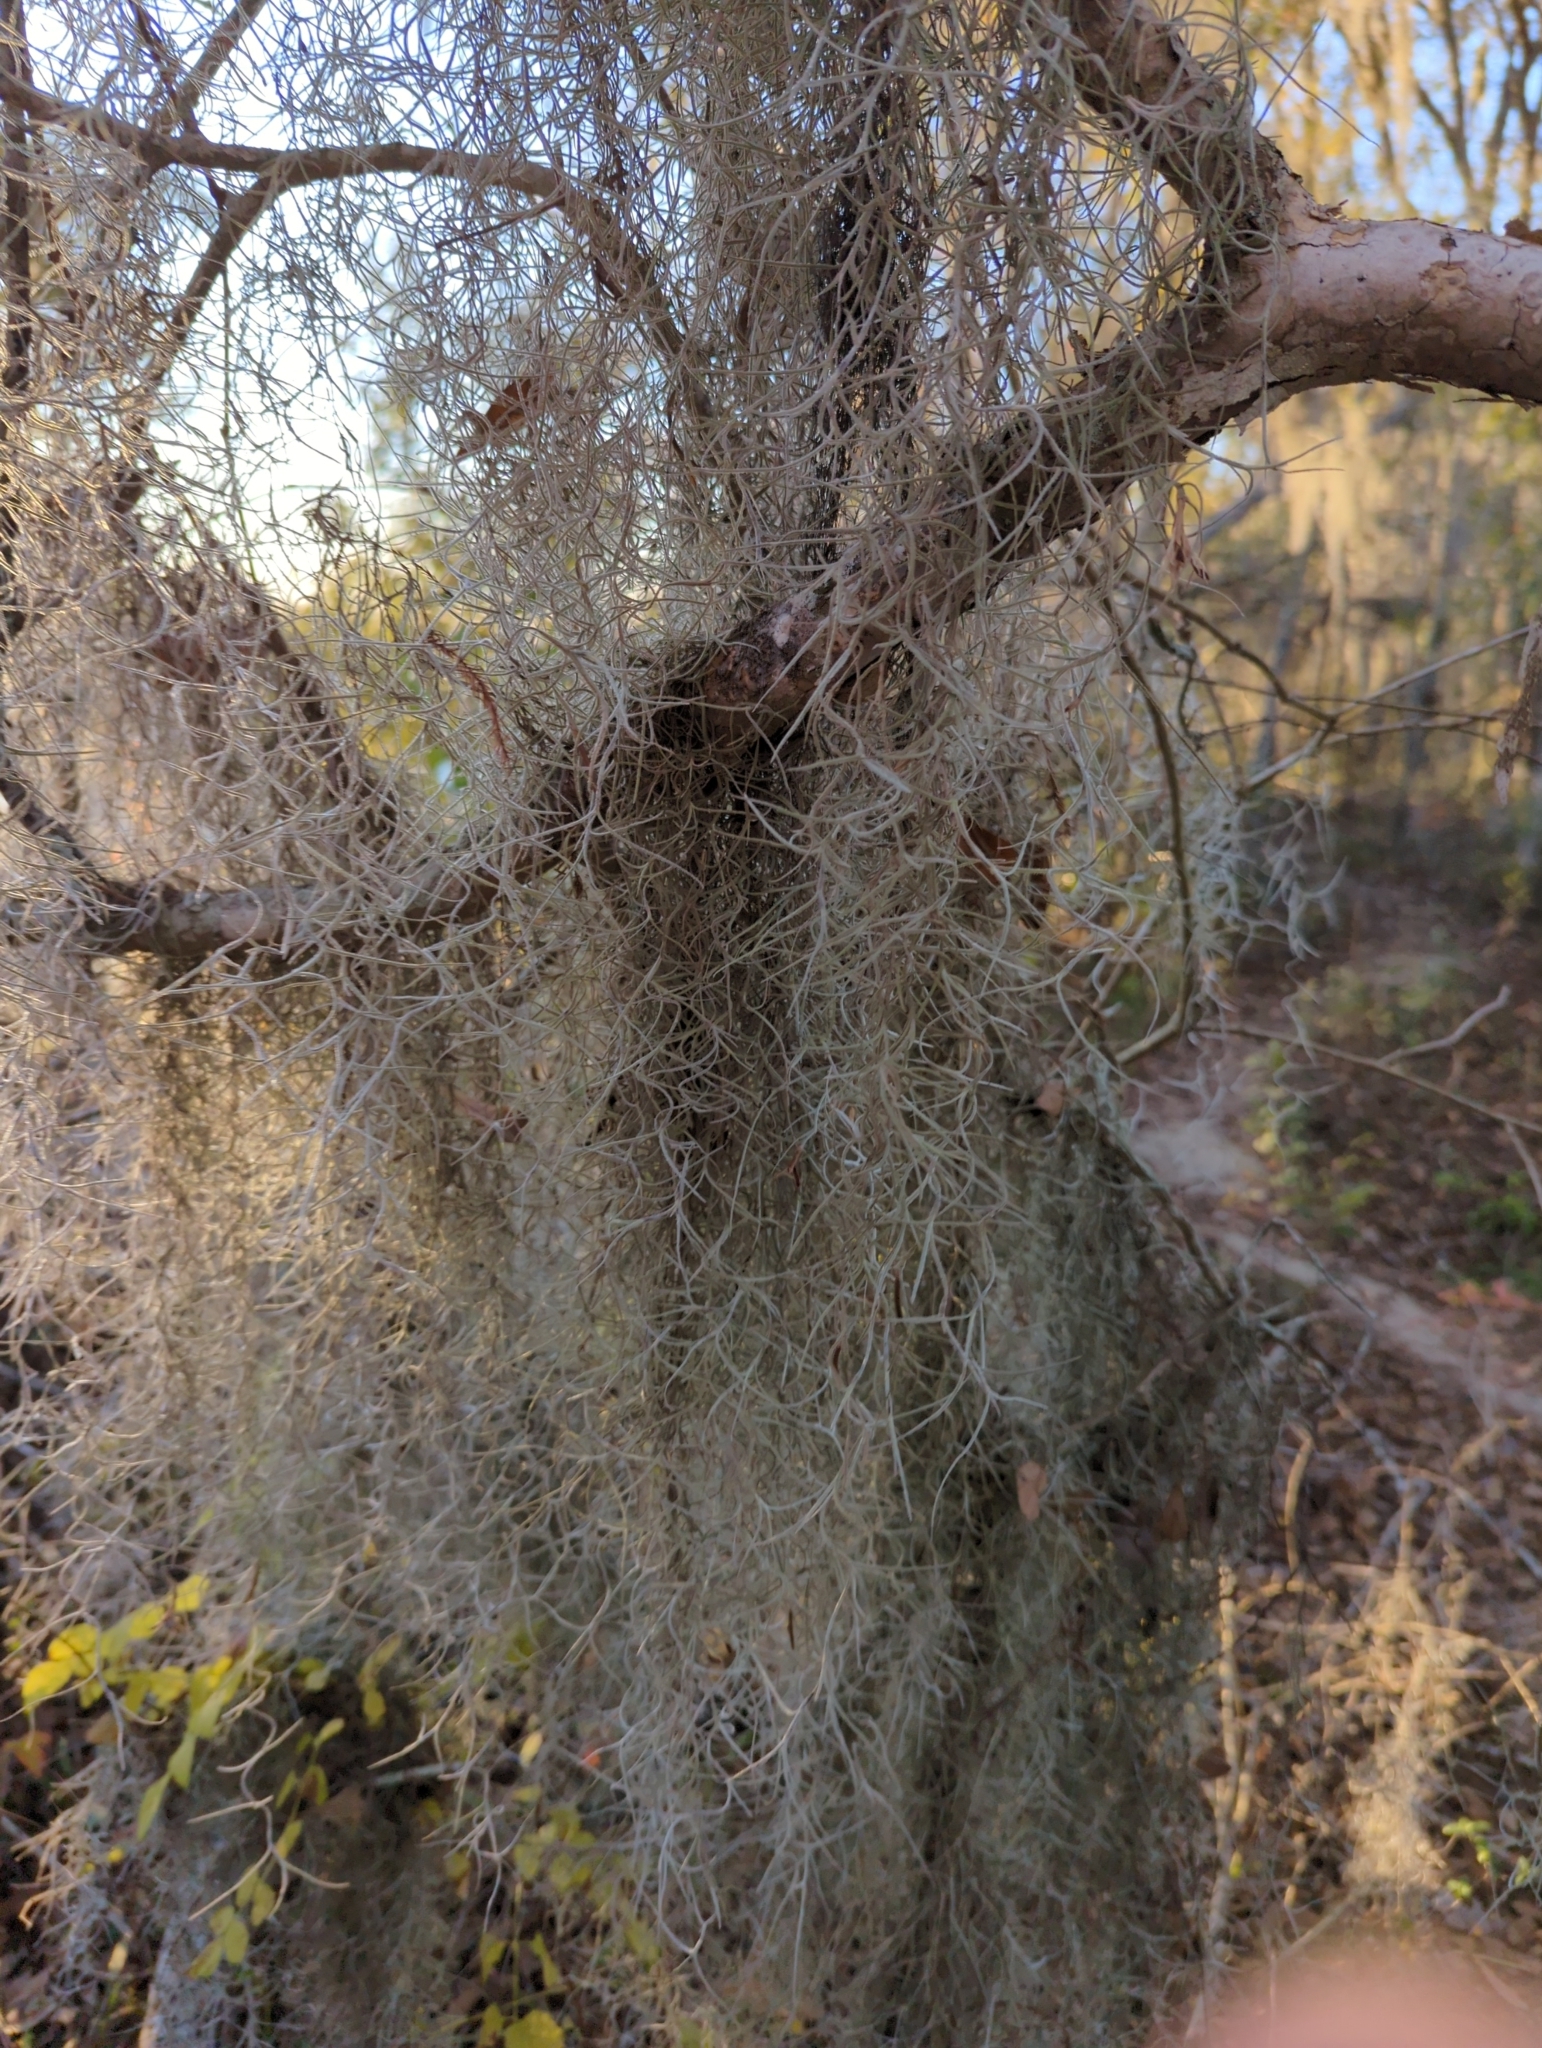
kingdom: Plantae
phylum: Tracheophyta
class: Liliopsida
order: Poales
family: Bromeliaceae
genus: Tillandsia
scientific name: Tillandsia usneoides
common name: Spanish moss
